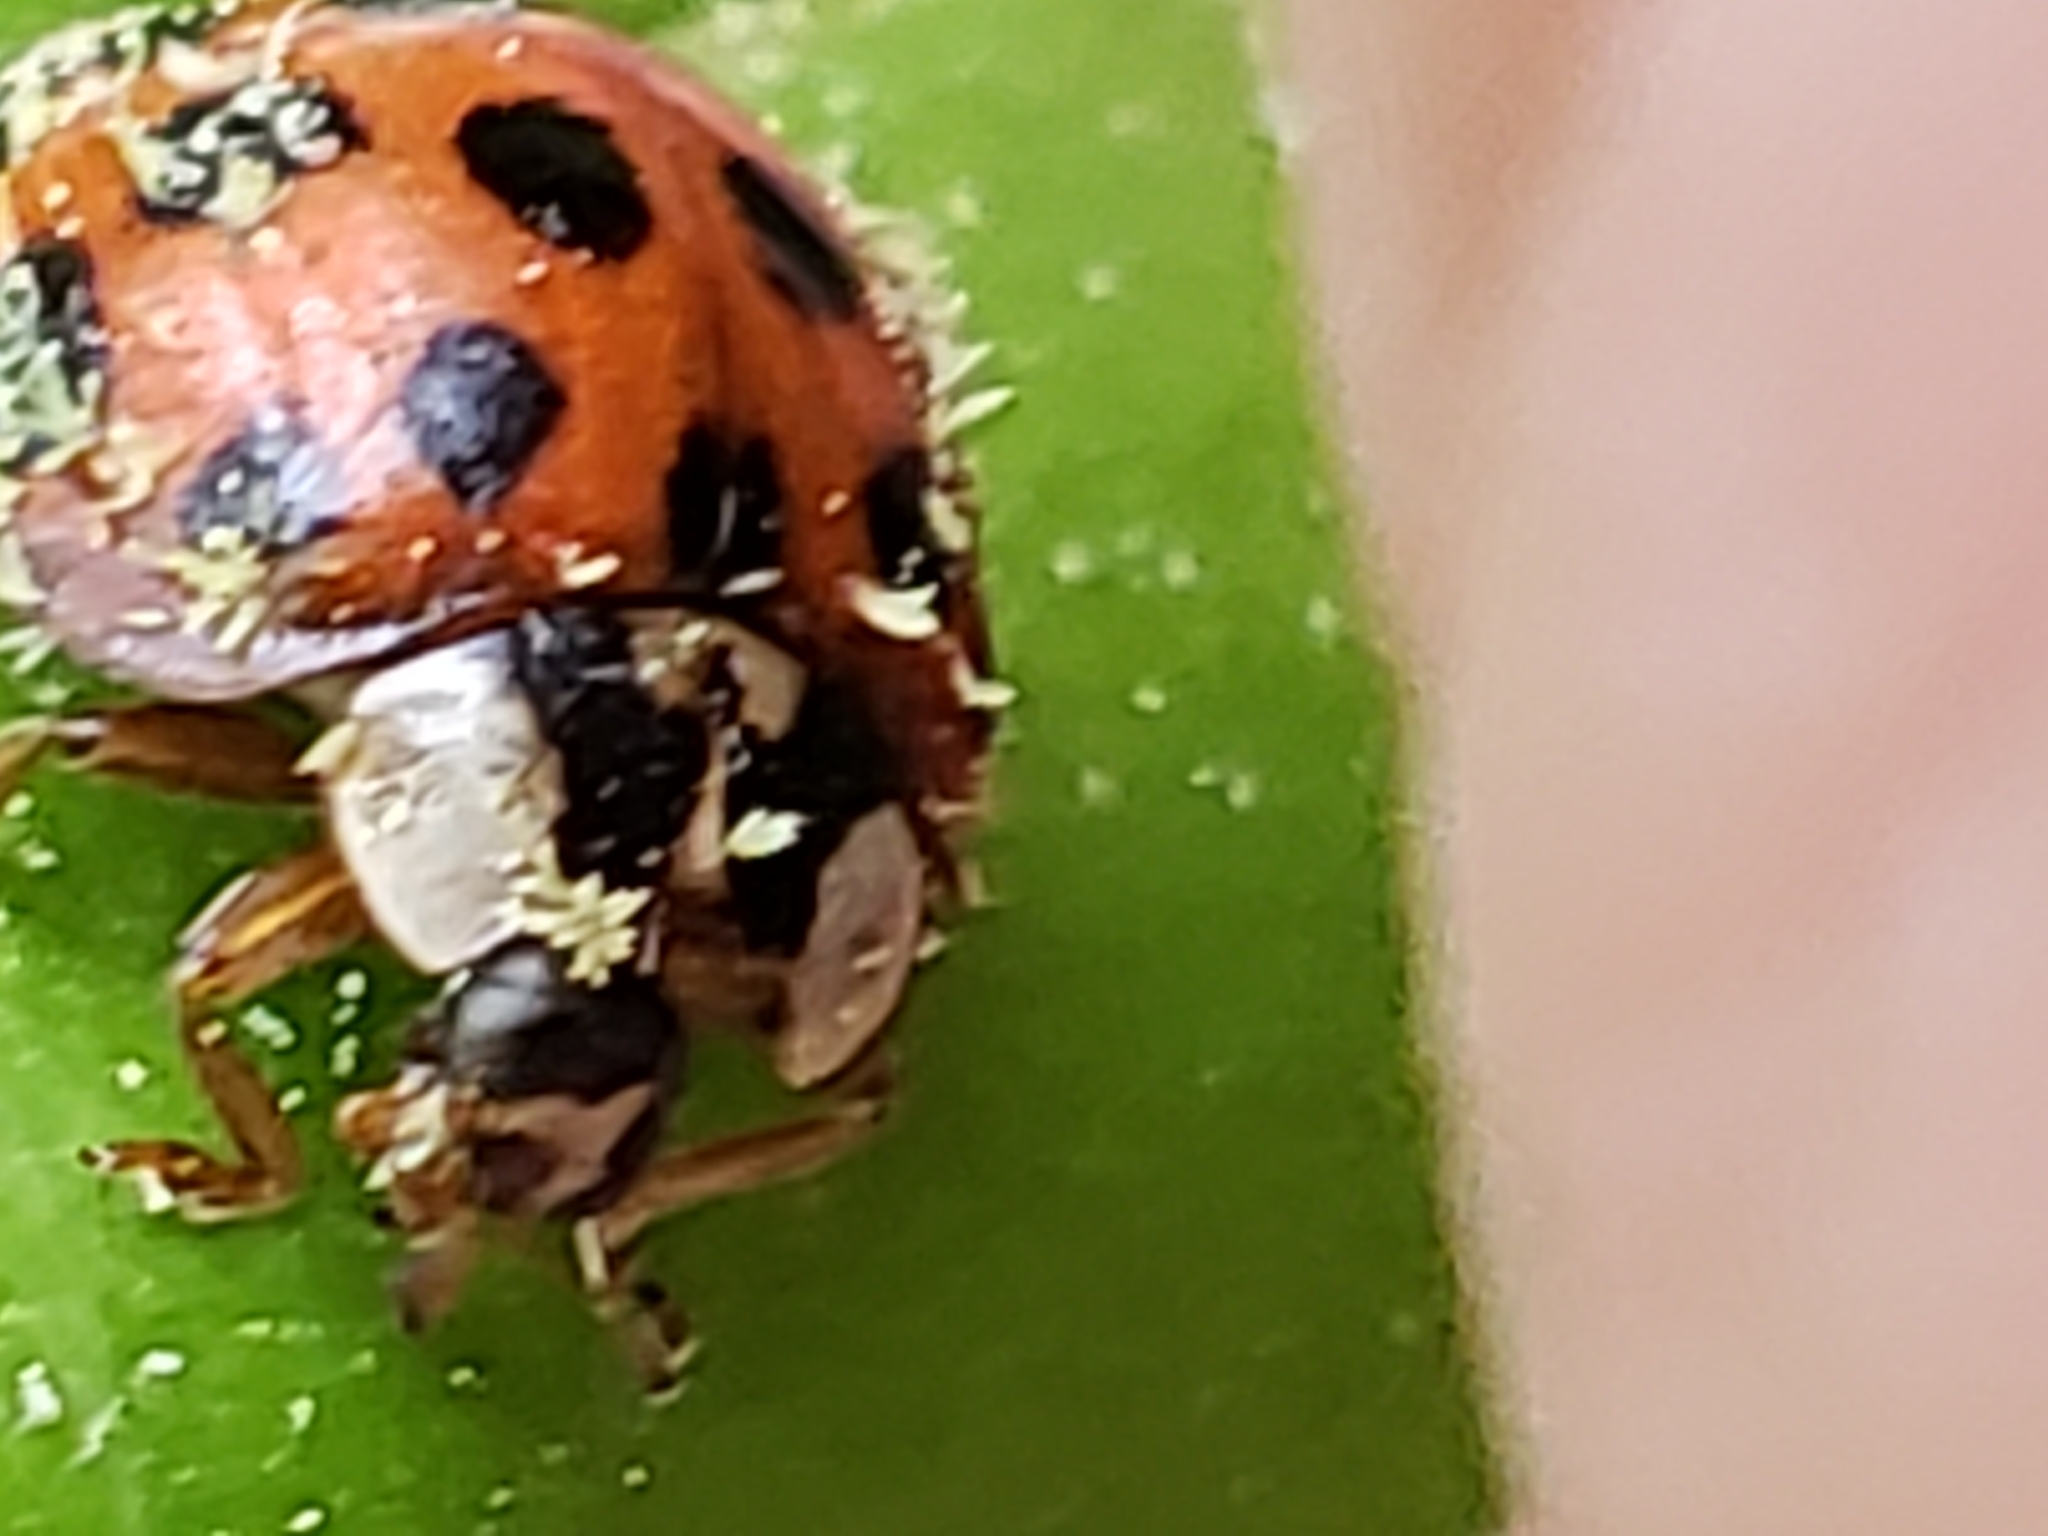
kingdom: Fungi
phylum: Ascomycota
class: Laboulbeniomycetes
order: Laboulbeniales
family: Laboulbeniaceae
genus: Hesperomyces
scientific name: Hesperomyces harmoniae
